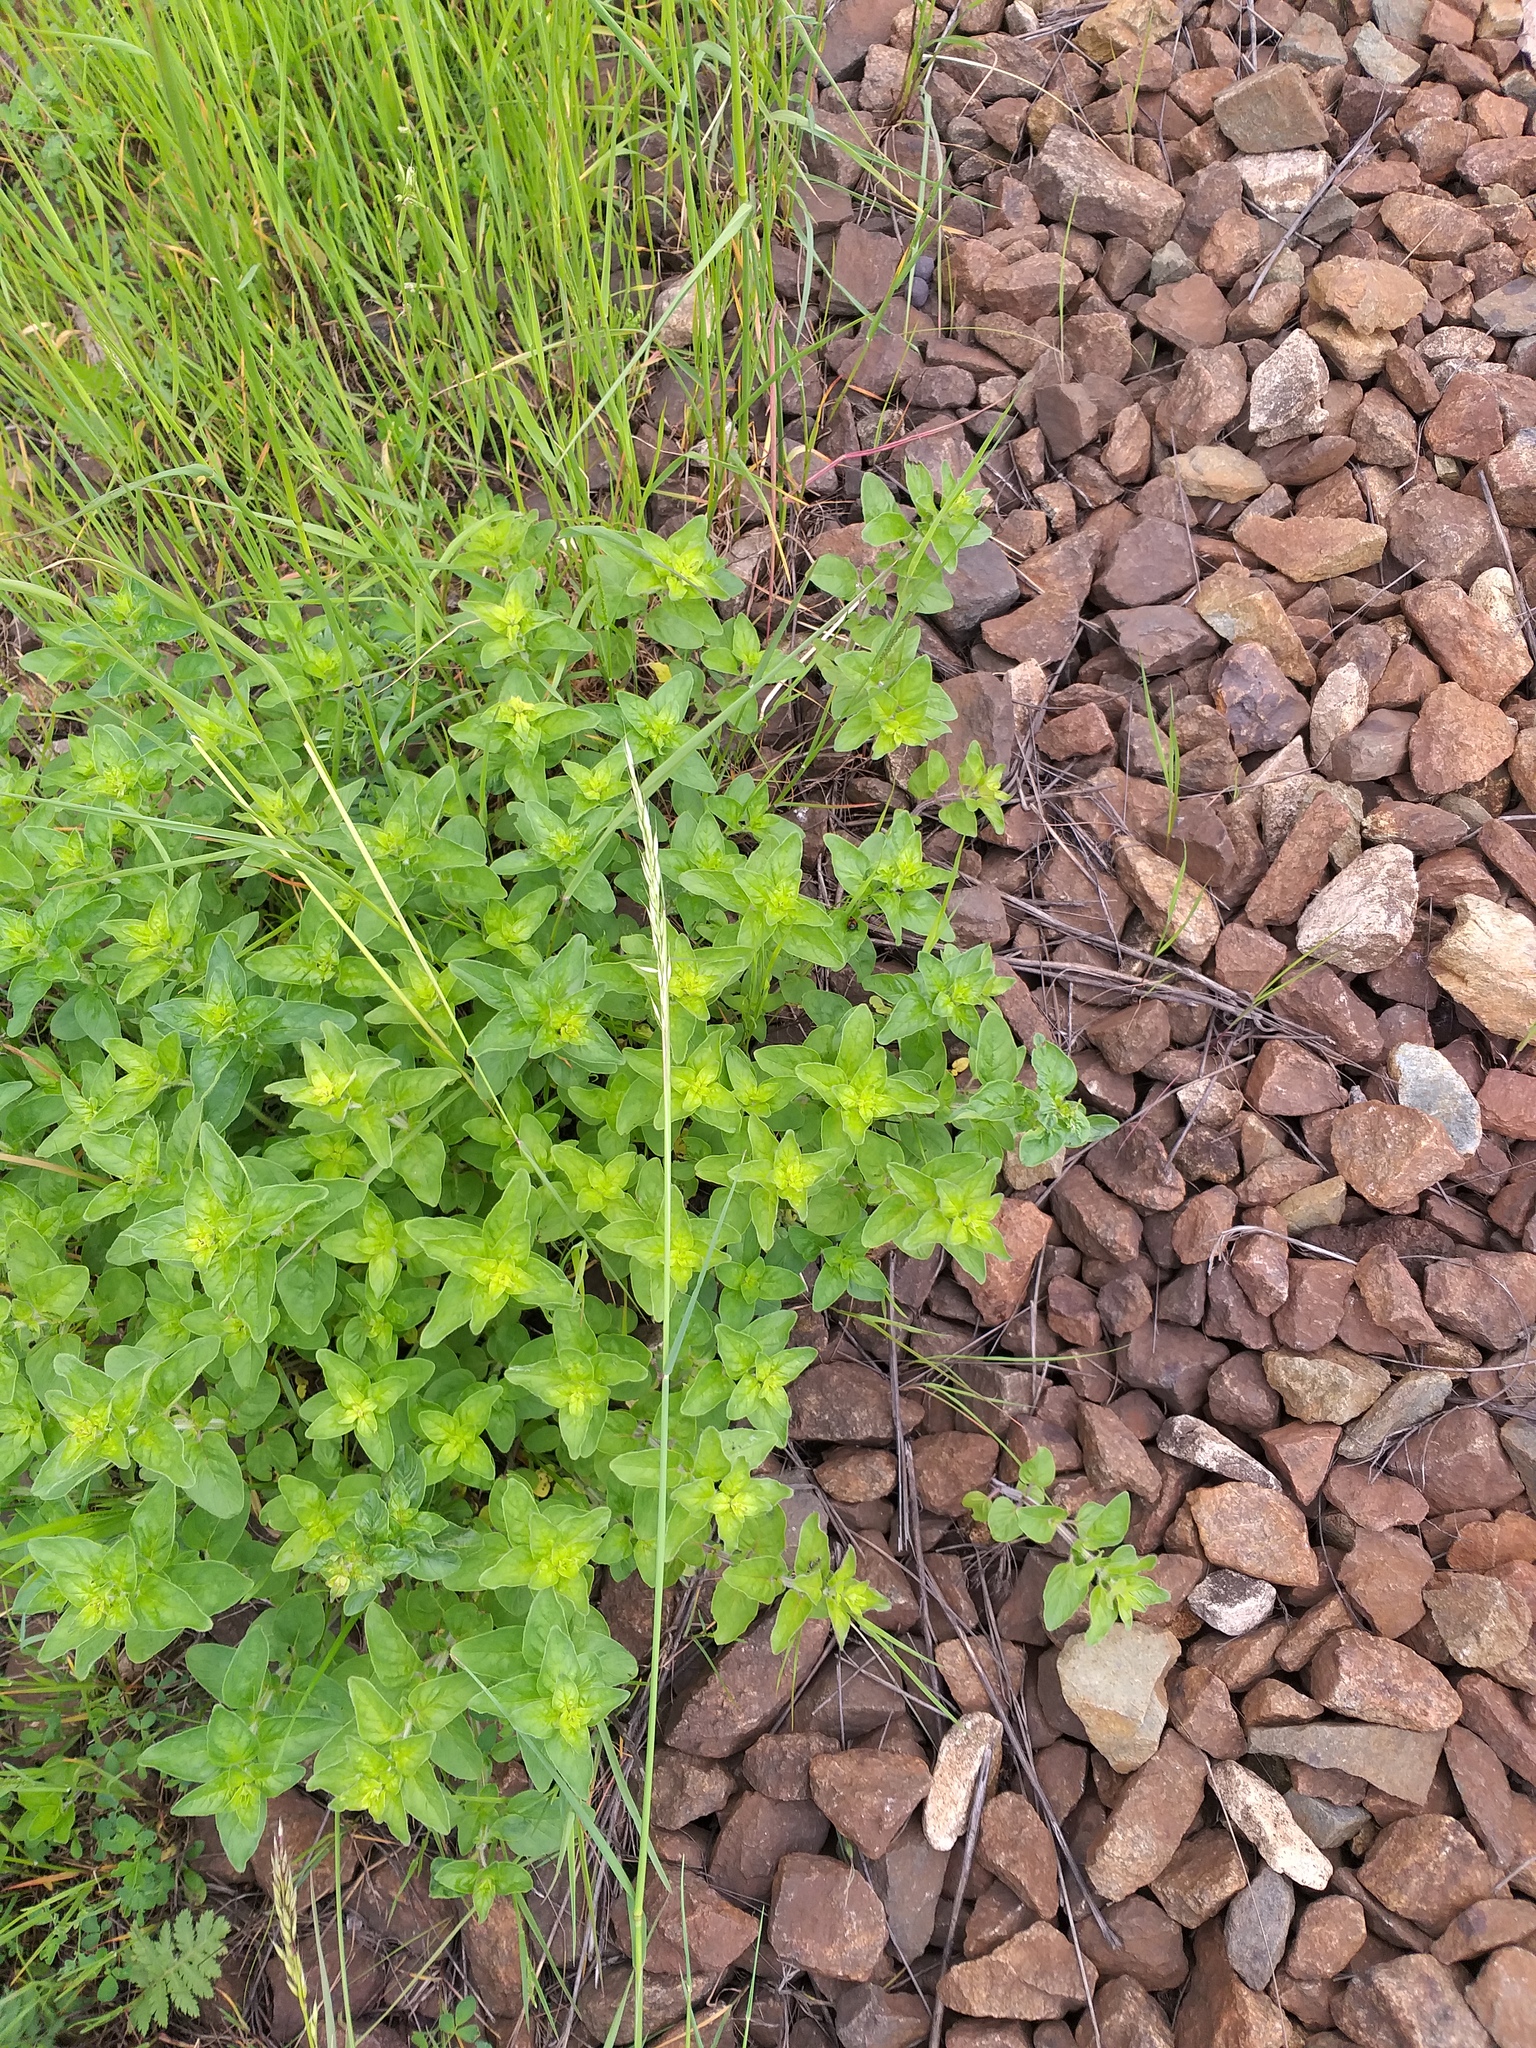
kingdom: Plantae
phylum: Tracheophyta
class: Magnoliopsida
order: Lamiales
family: Lamiaceae
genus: Origanum
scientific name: Origanum vulgare
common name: Wild marjoram
